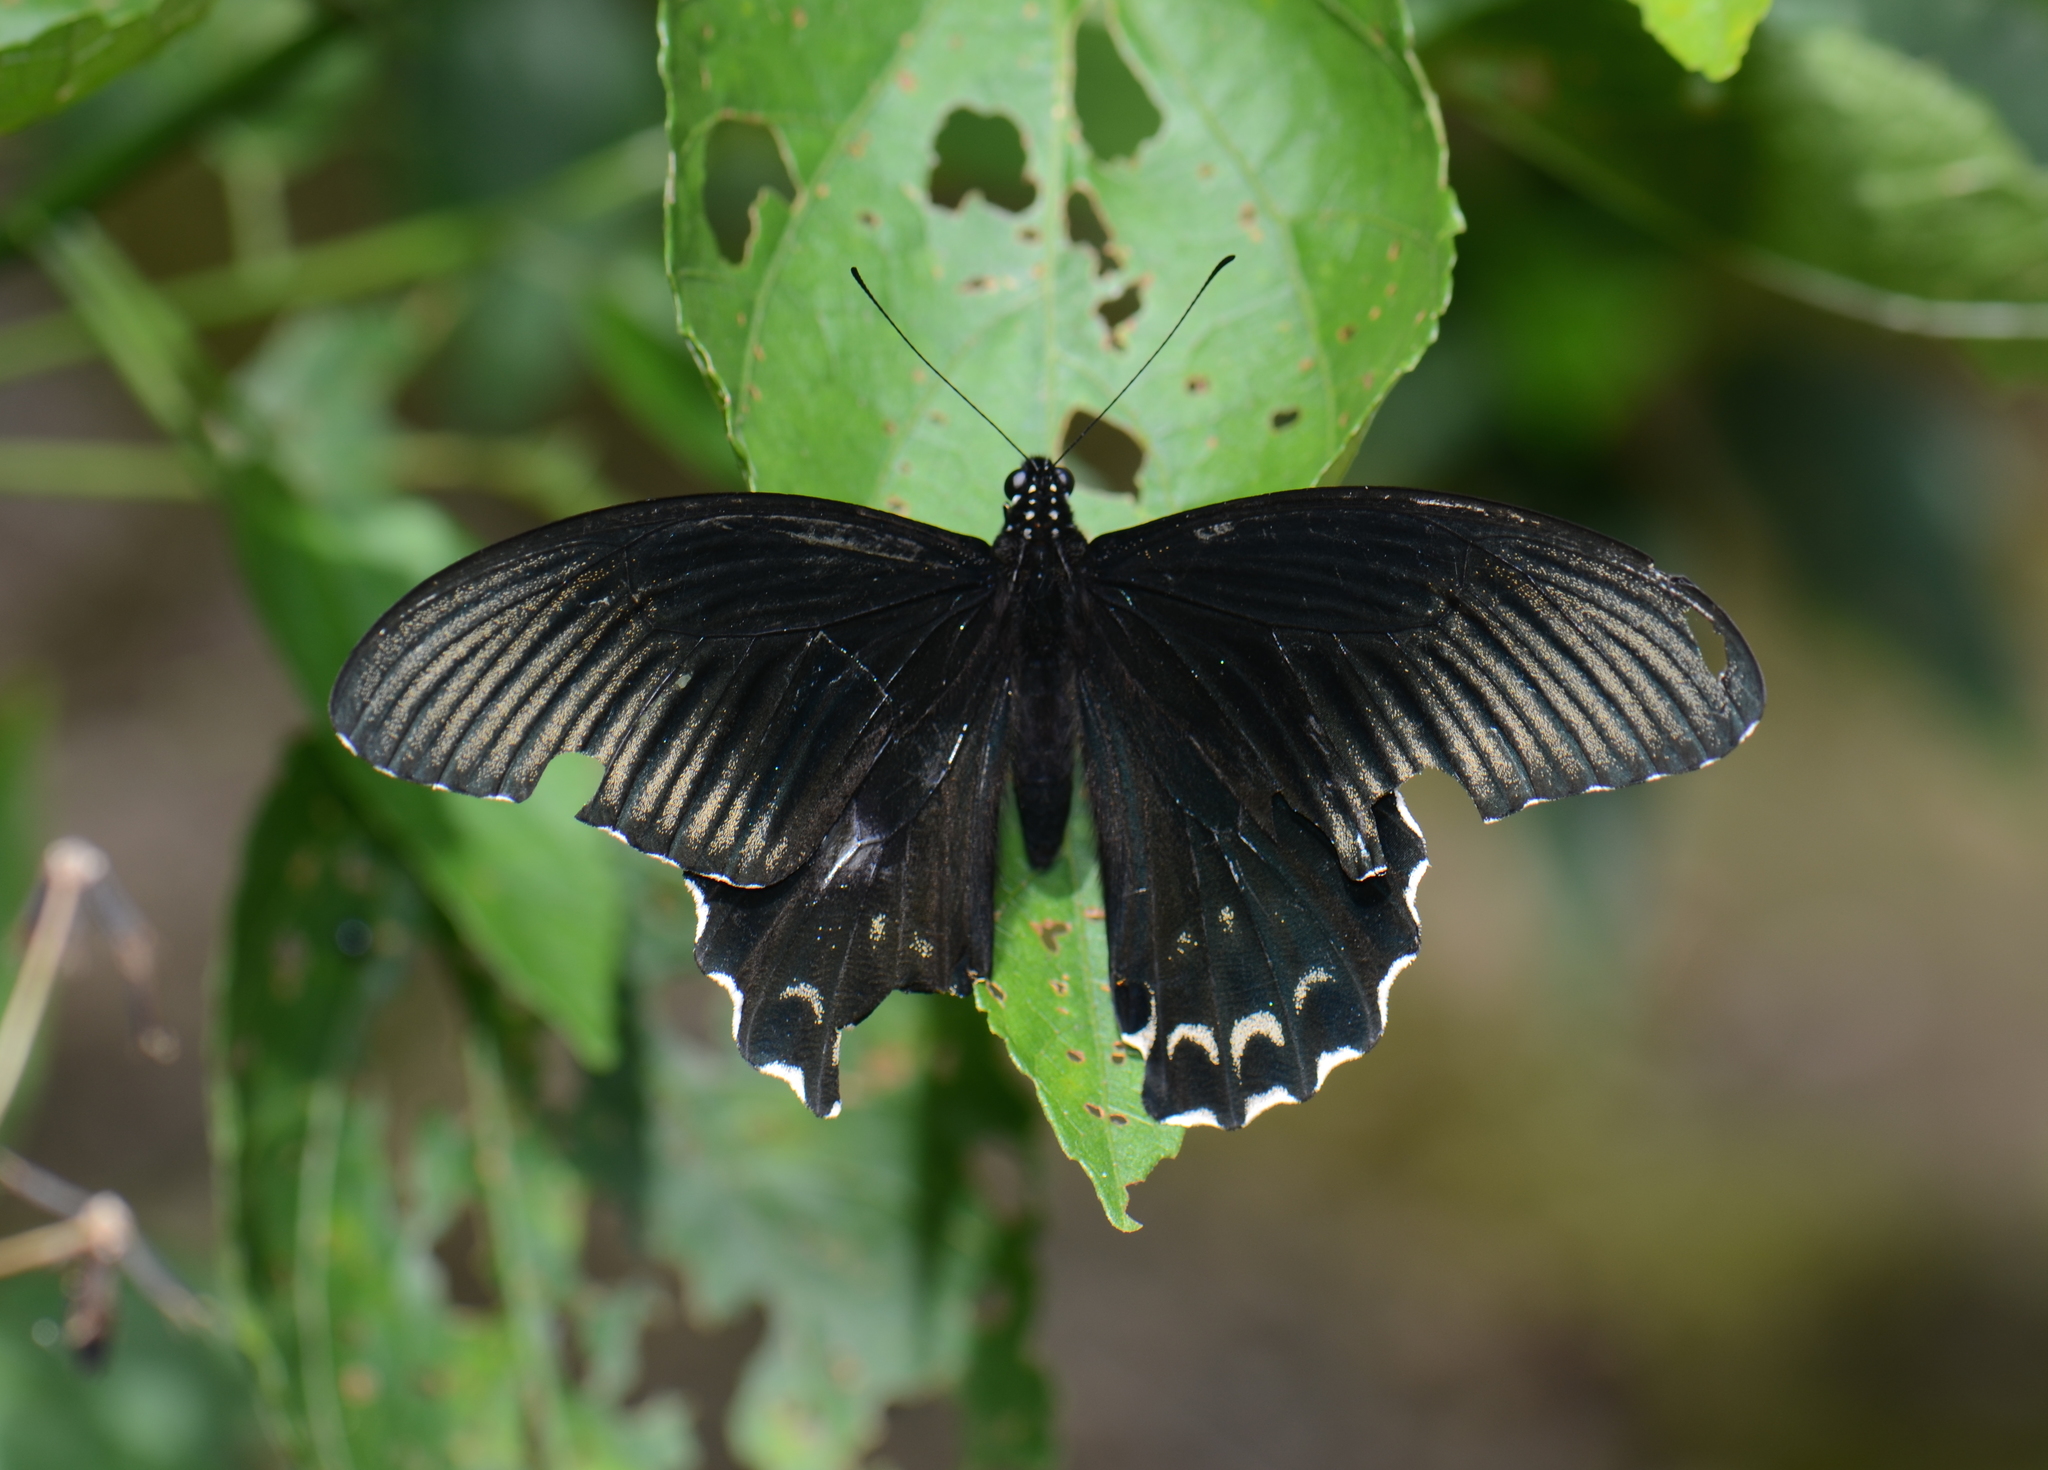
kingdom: Animalia
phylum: Arthropoda
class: Insecta
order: Lepidoptera
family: Papilionidae
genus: Papilio
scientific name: Papilio forbesi
